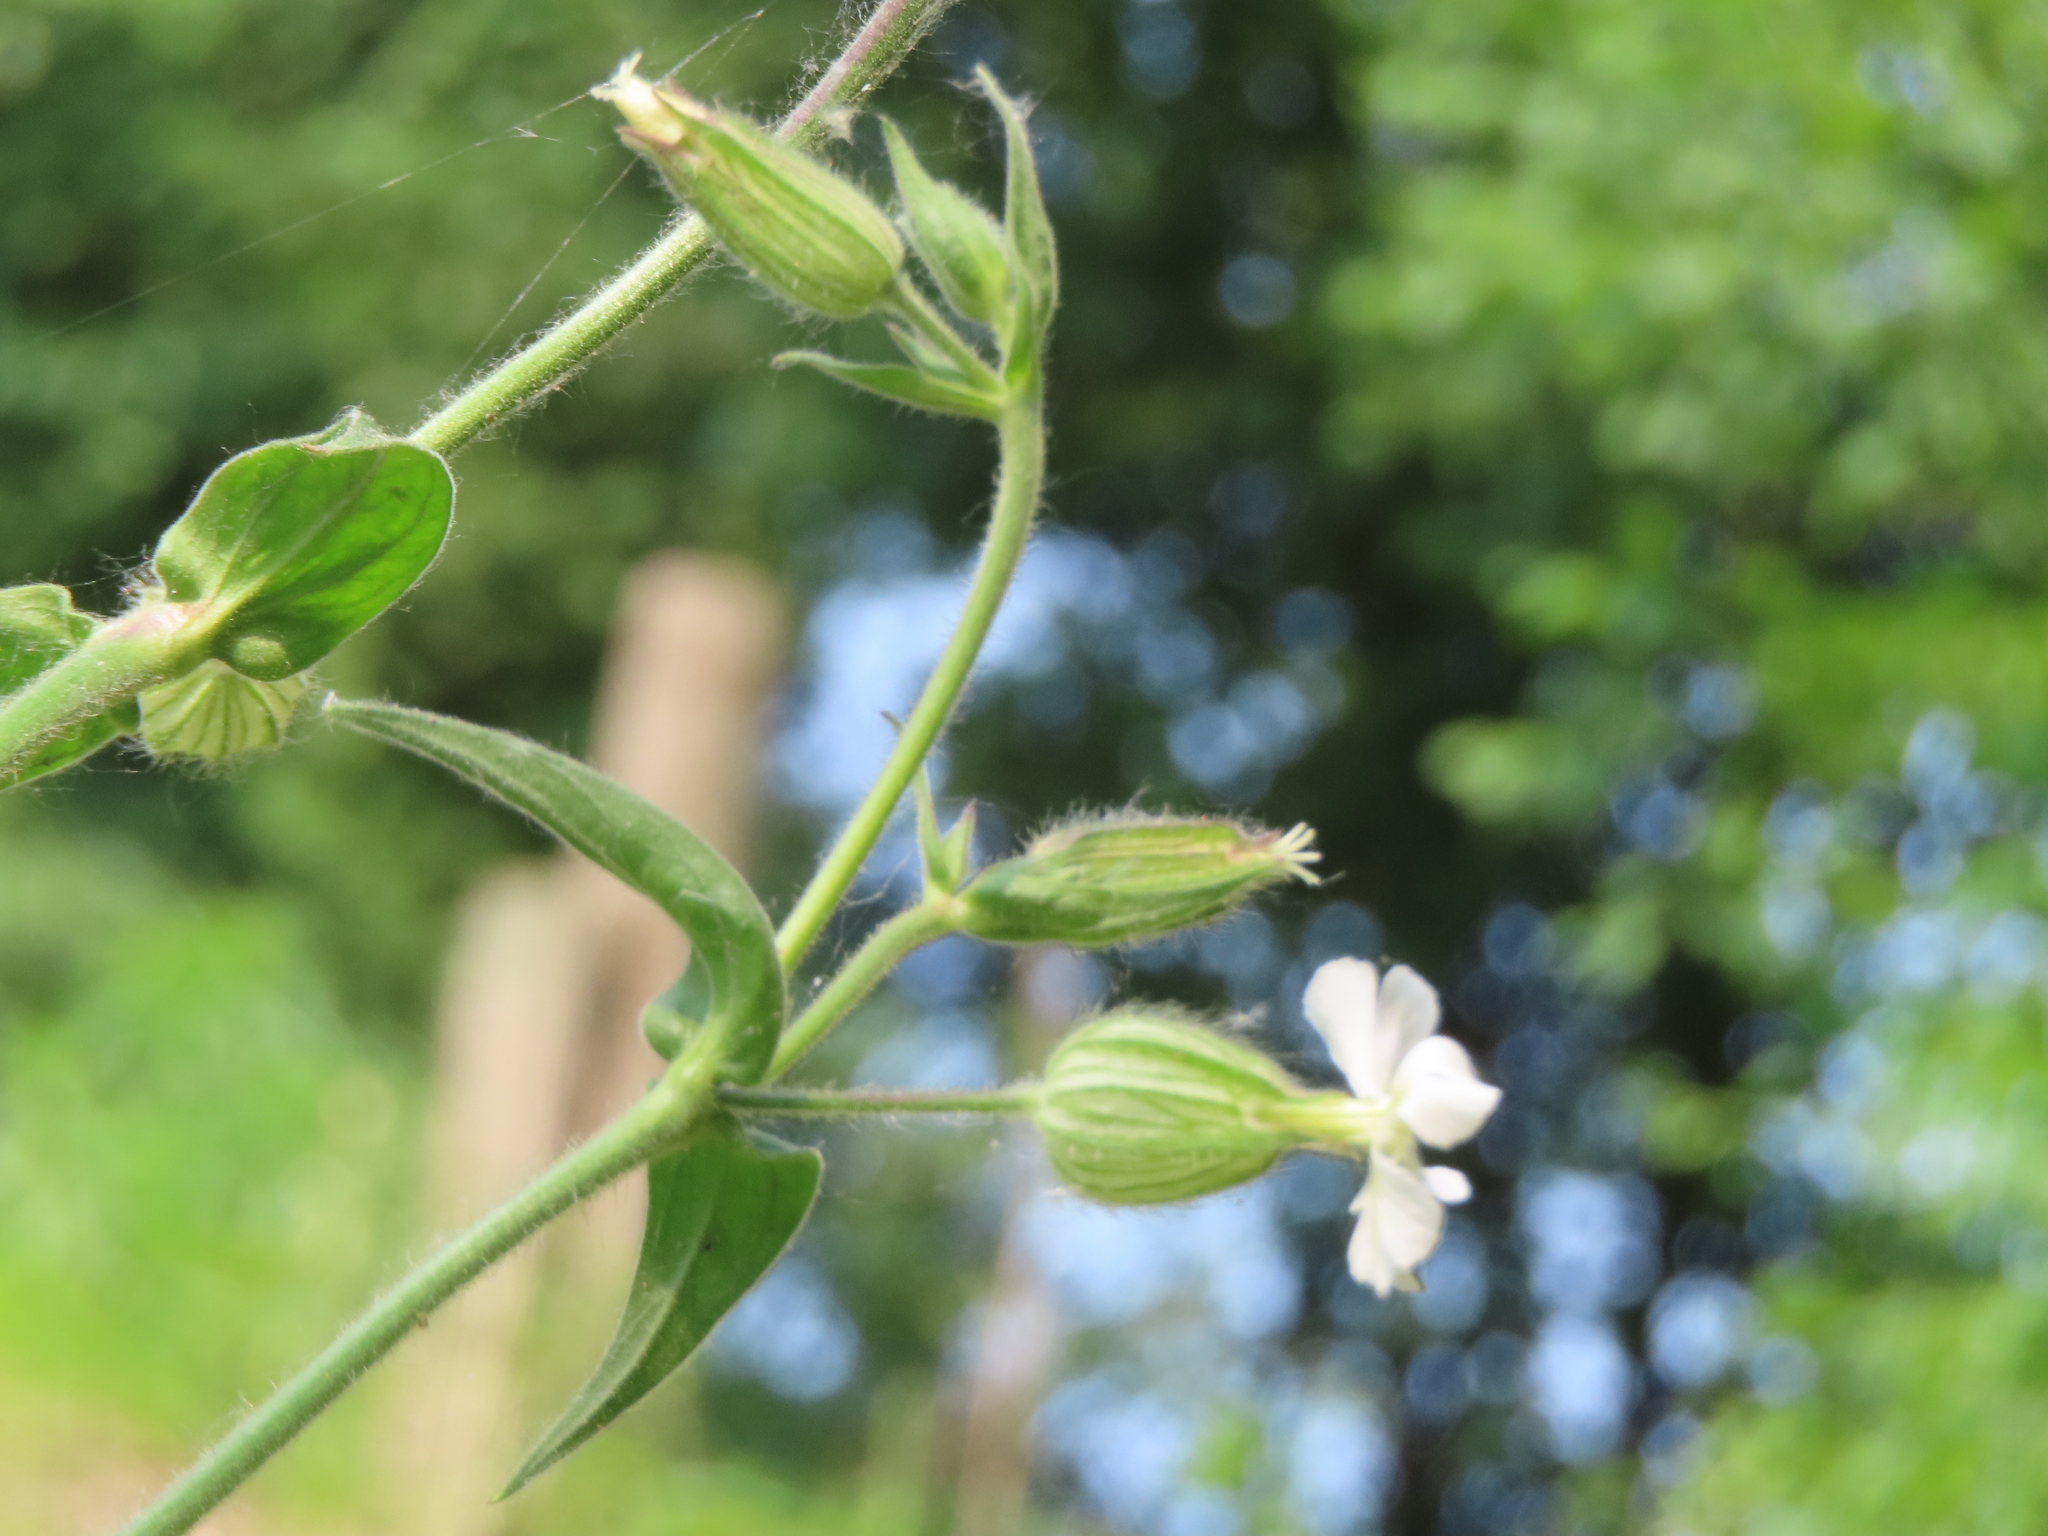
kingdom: Plantae
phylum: Tracheophyta
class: Magnoliopsida
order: Caryophyllales
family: Caryophyllaceae
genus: Silene
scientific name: Silene latifolia
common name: White campion
